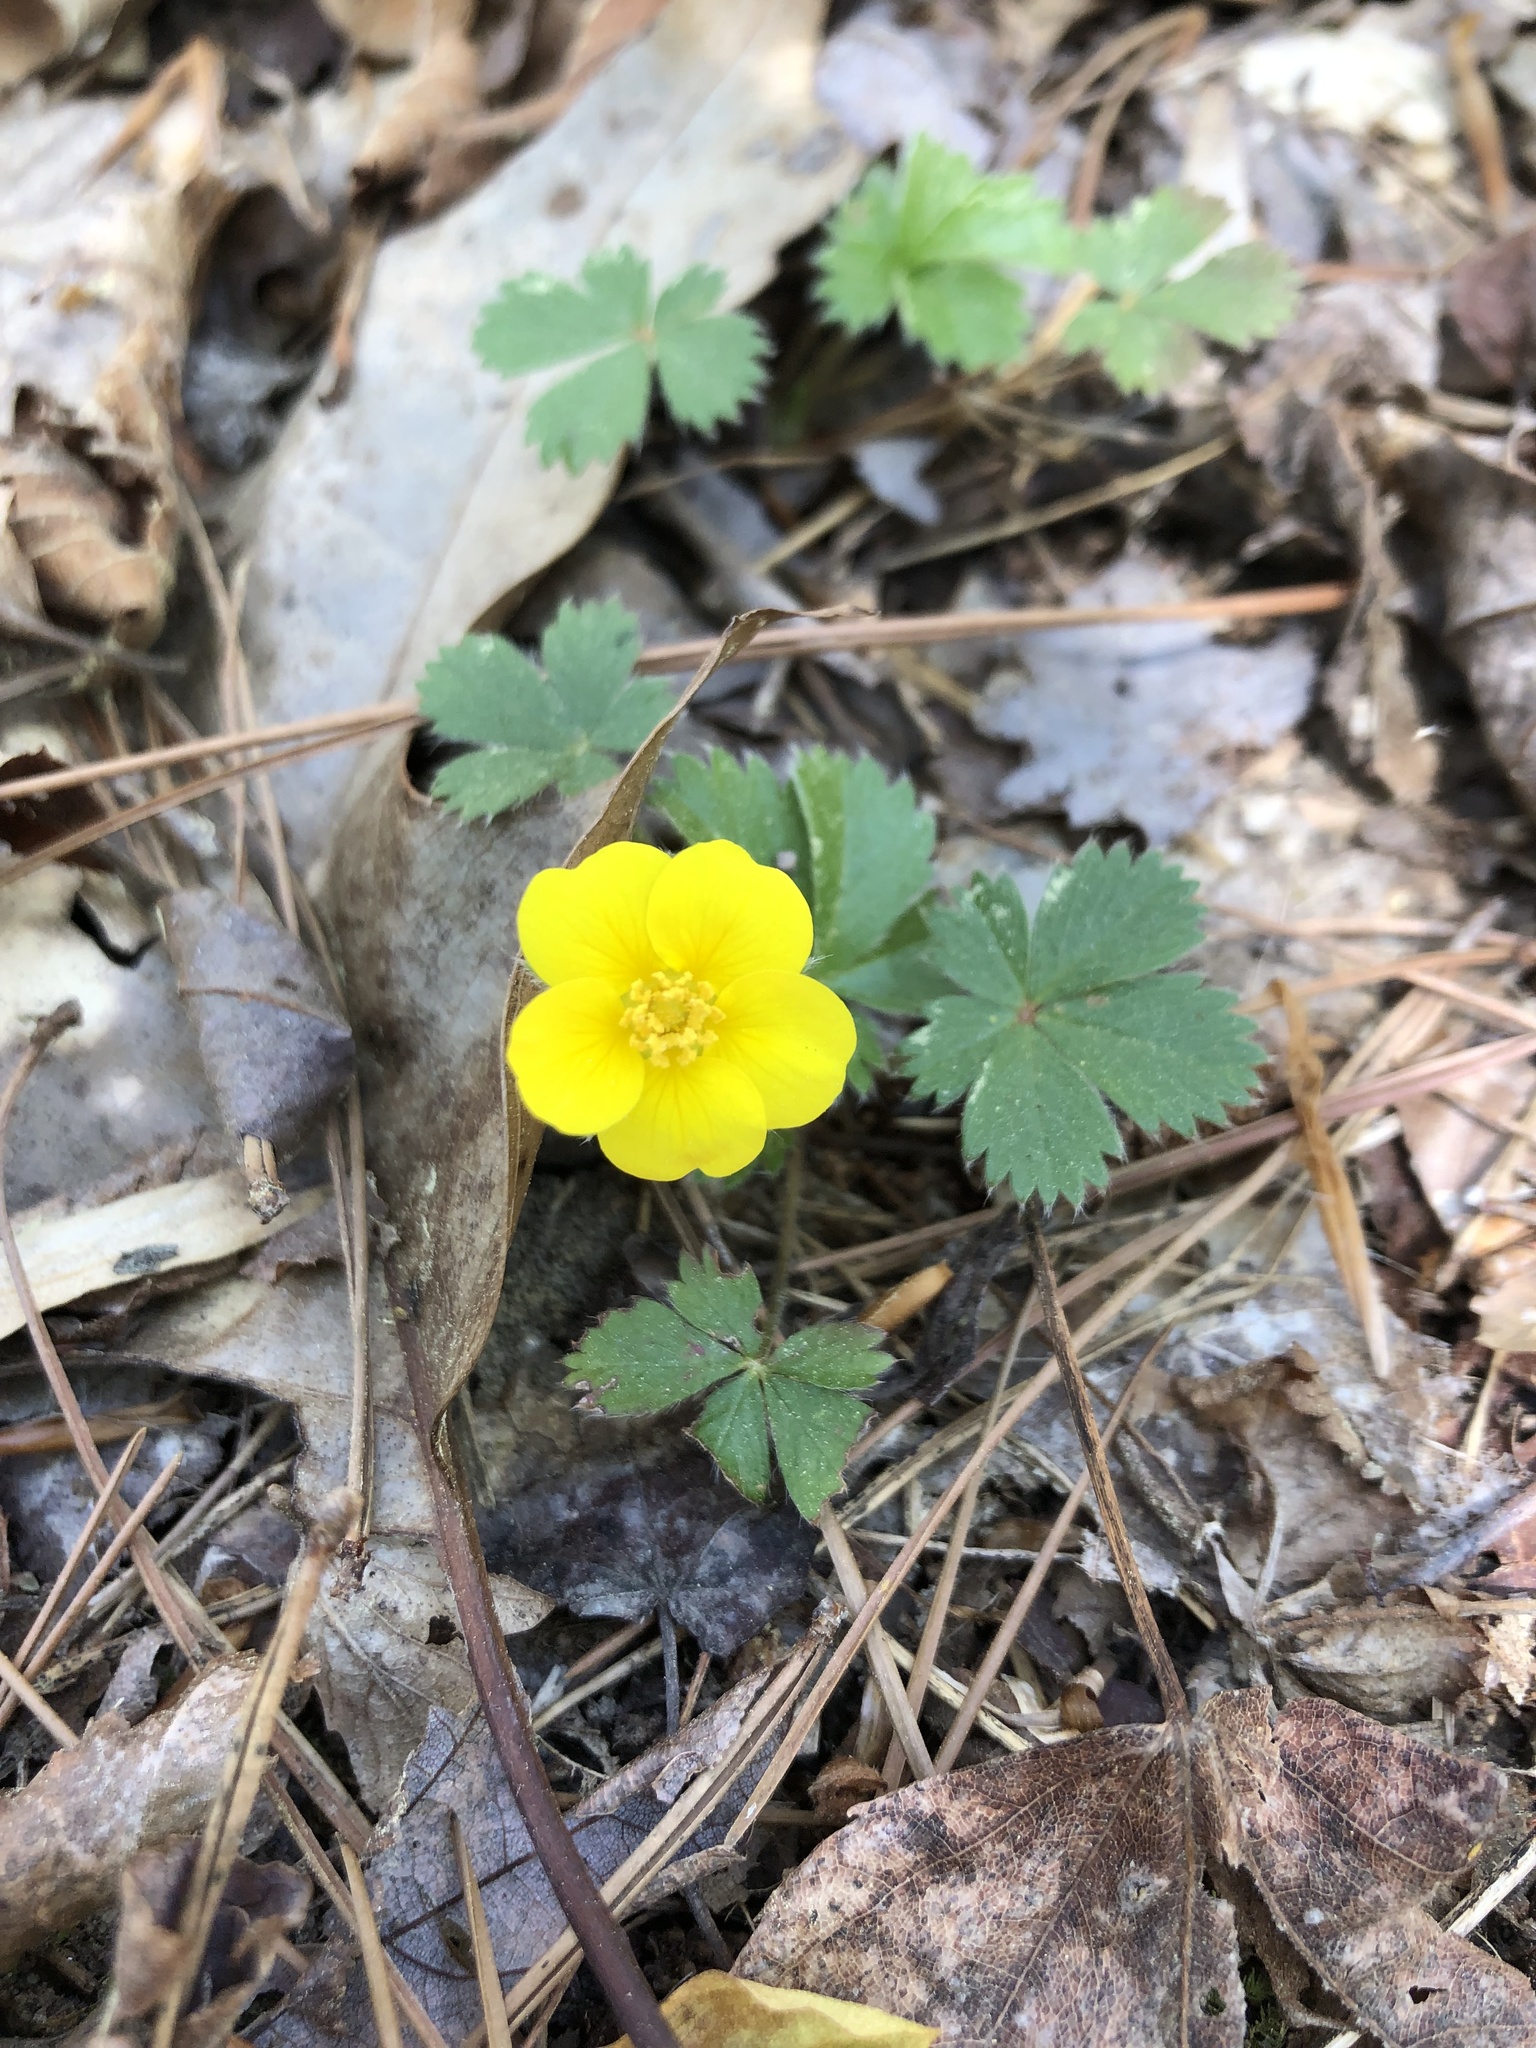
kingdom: Plantae
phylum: Tracheophyta
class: Magnoliopsida
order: Rosales
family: Rosaceae
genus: Potentilla
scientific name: Potentilla canadensis
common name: Canada cinquefoil
